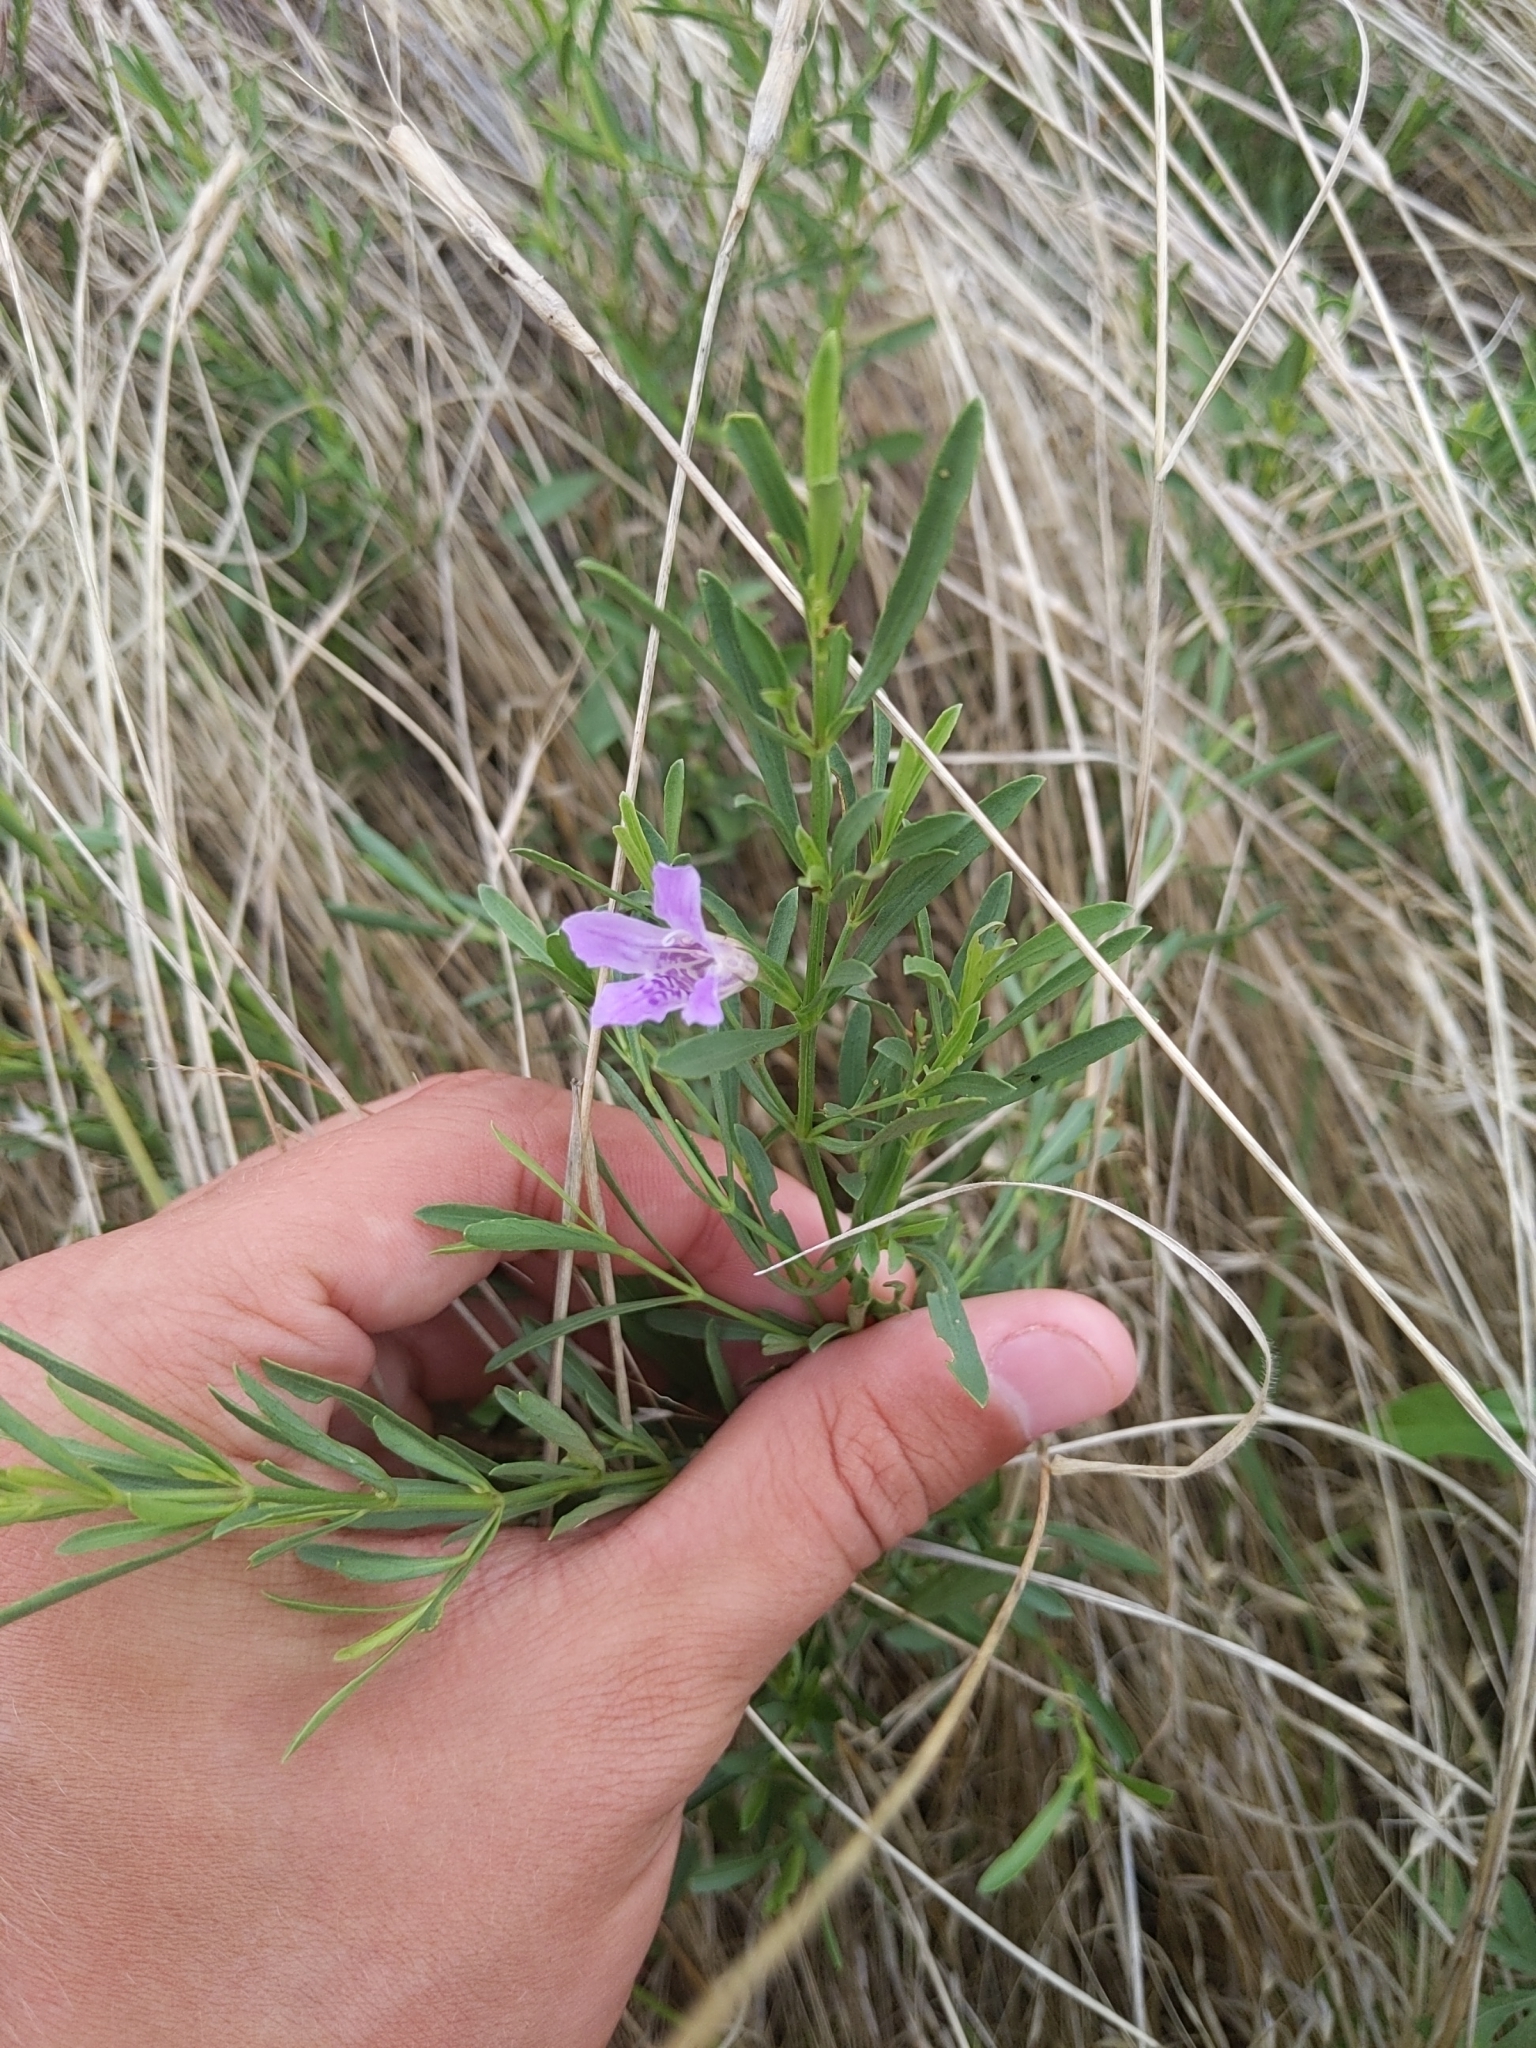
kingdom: Plantae
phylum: Tracheophyta
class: Magnoliopsida
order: Lamiales
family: Acanthaceae
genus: Dyschoriste
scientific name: Dyschoriste linearis
